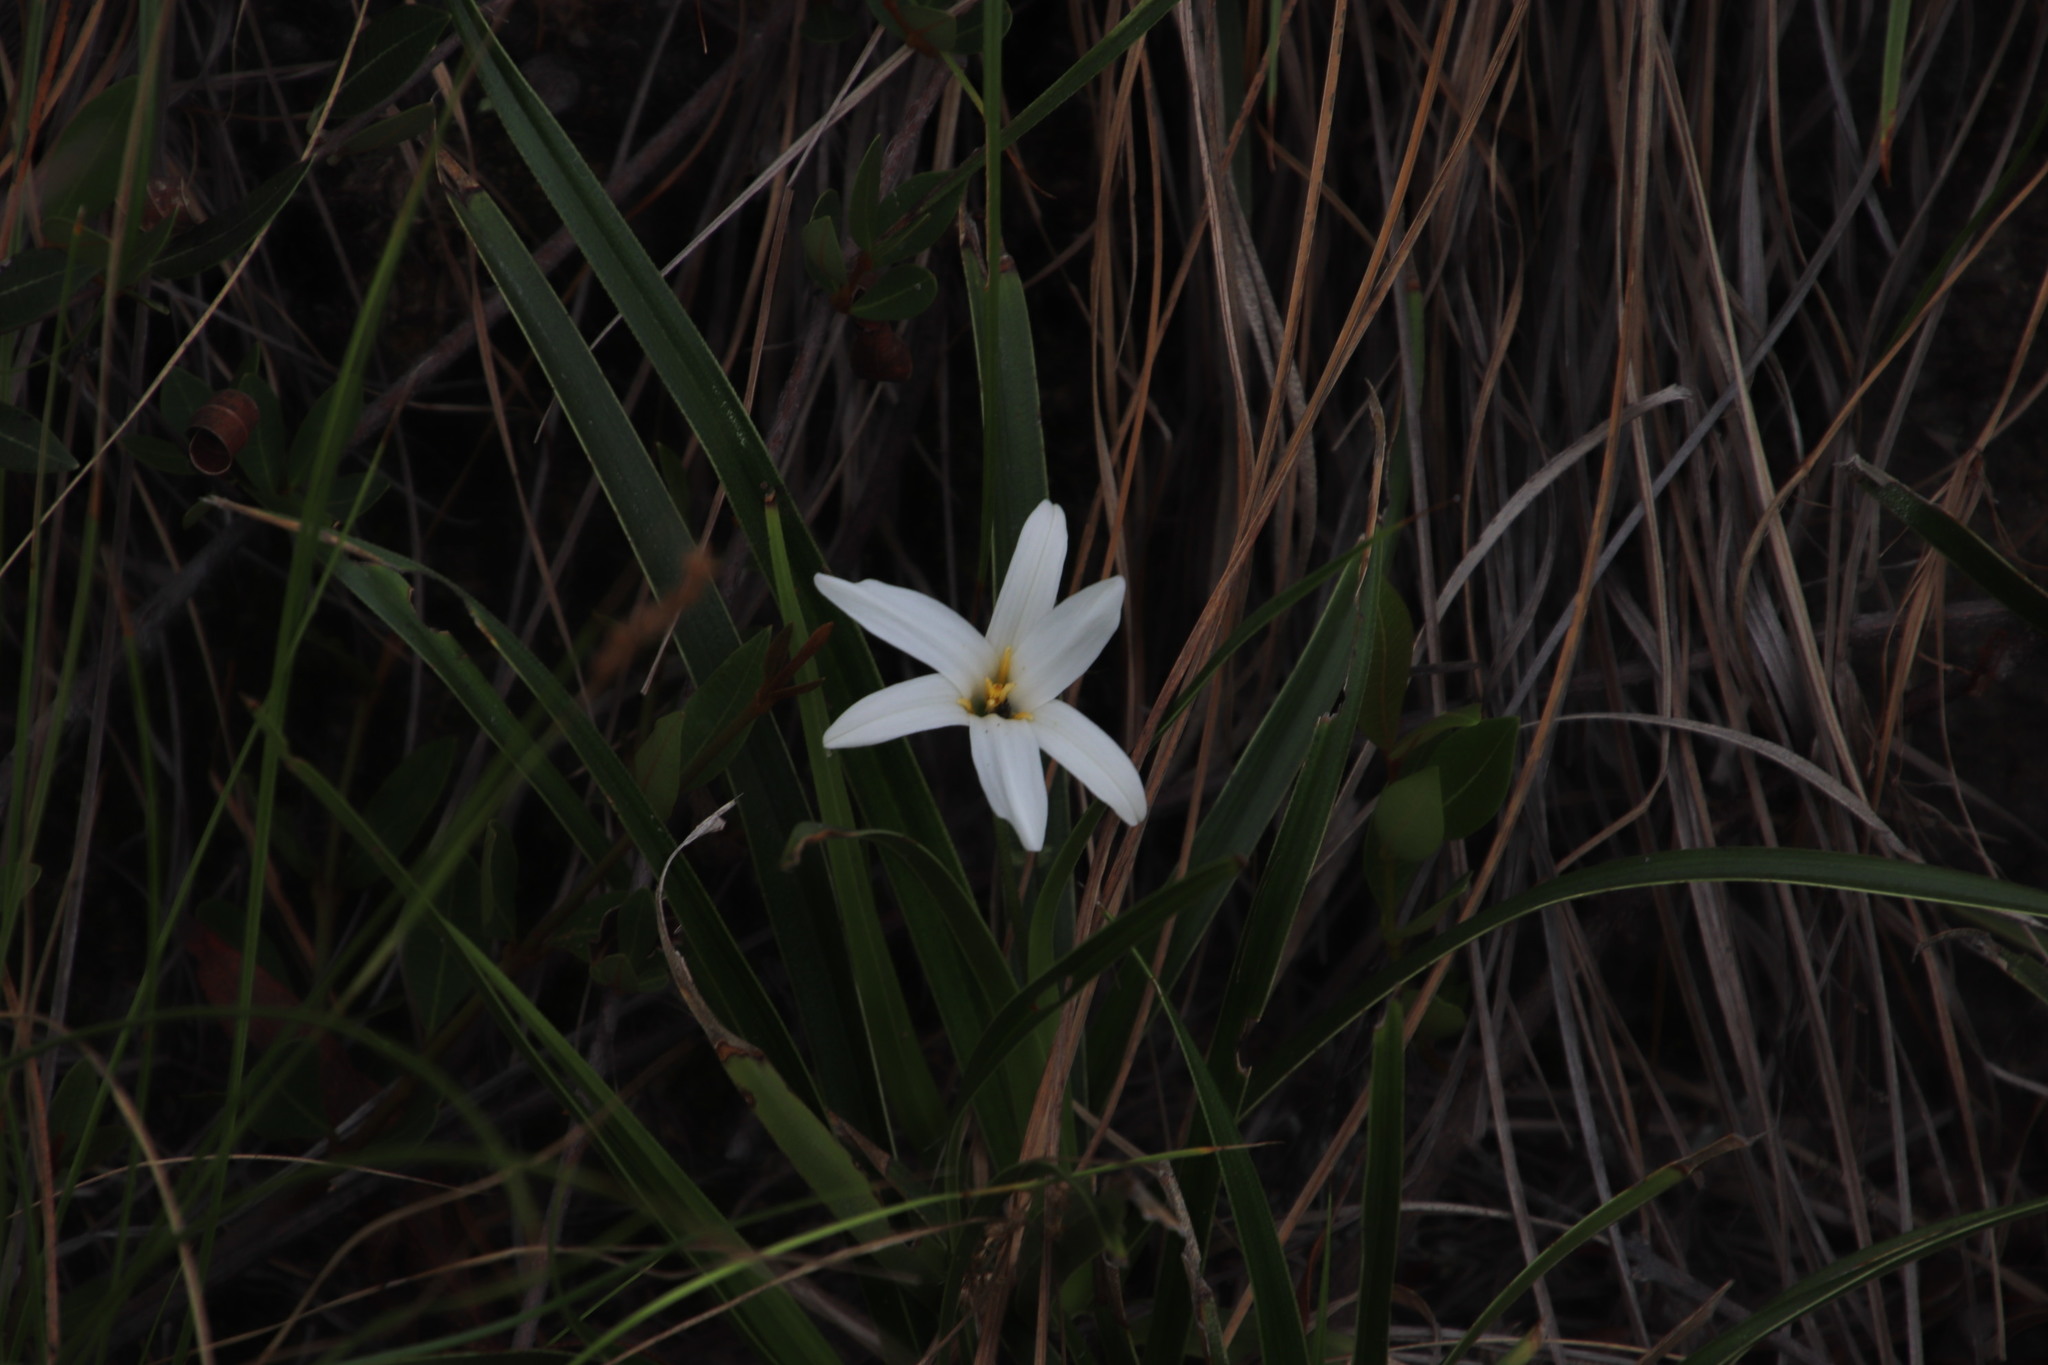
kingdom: Plantae
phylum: Tracheophyta
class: Liliopsida
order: Pandanales
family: Velloziaceae
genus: Xerophyta
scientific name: Xerophyta schlechteri
